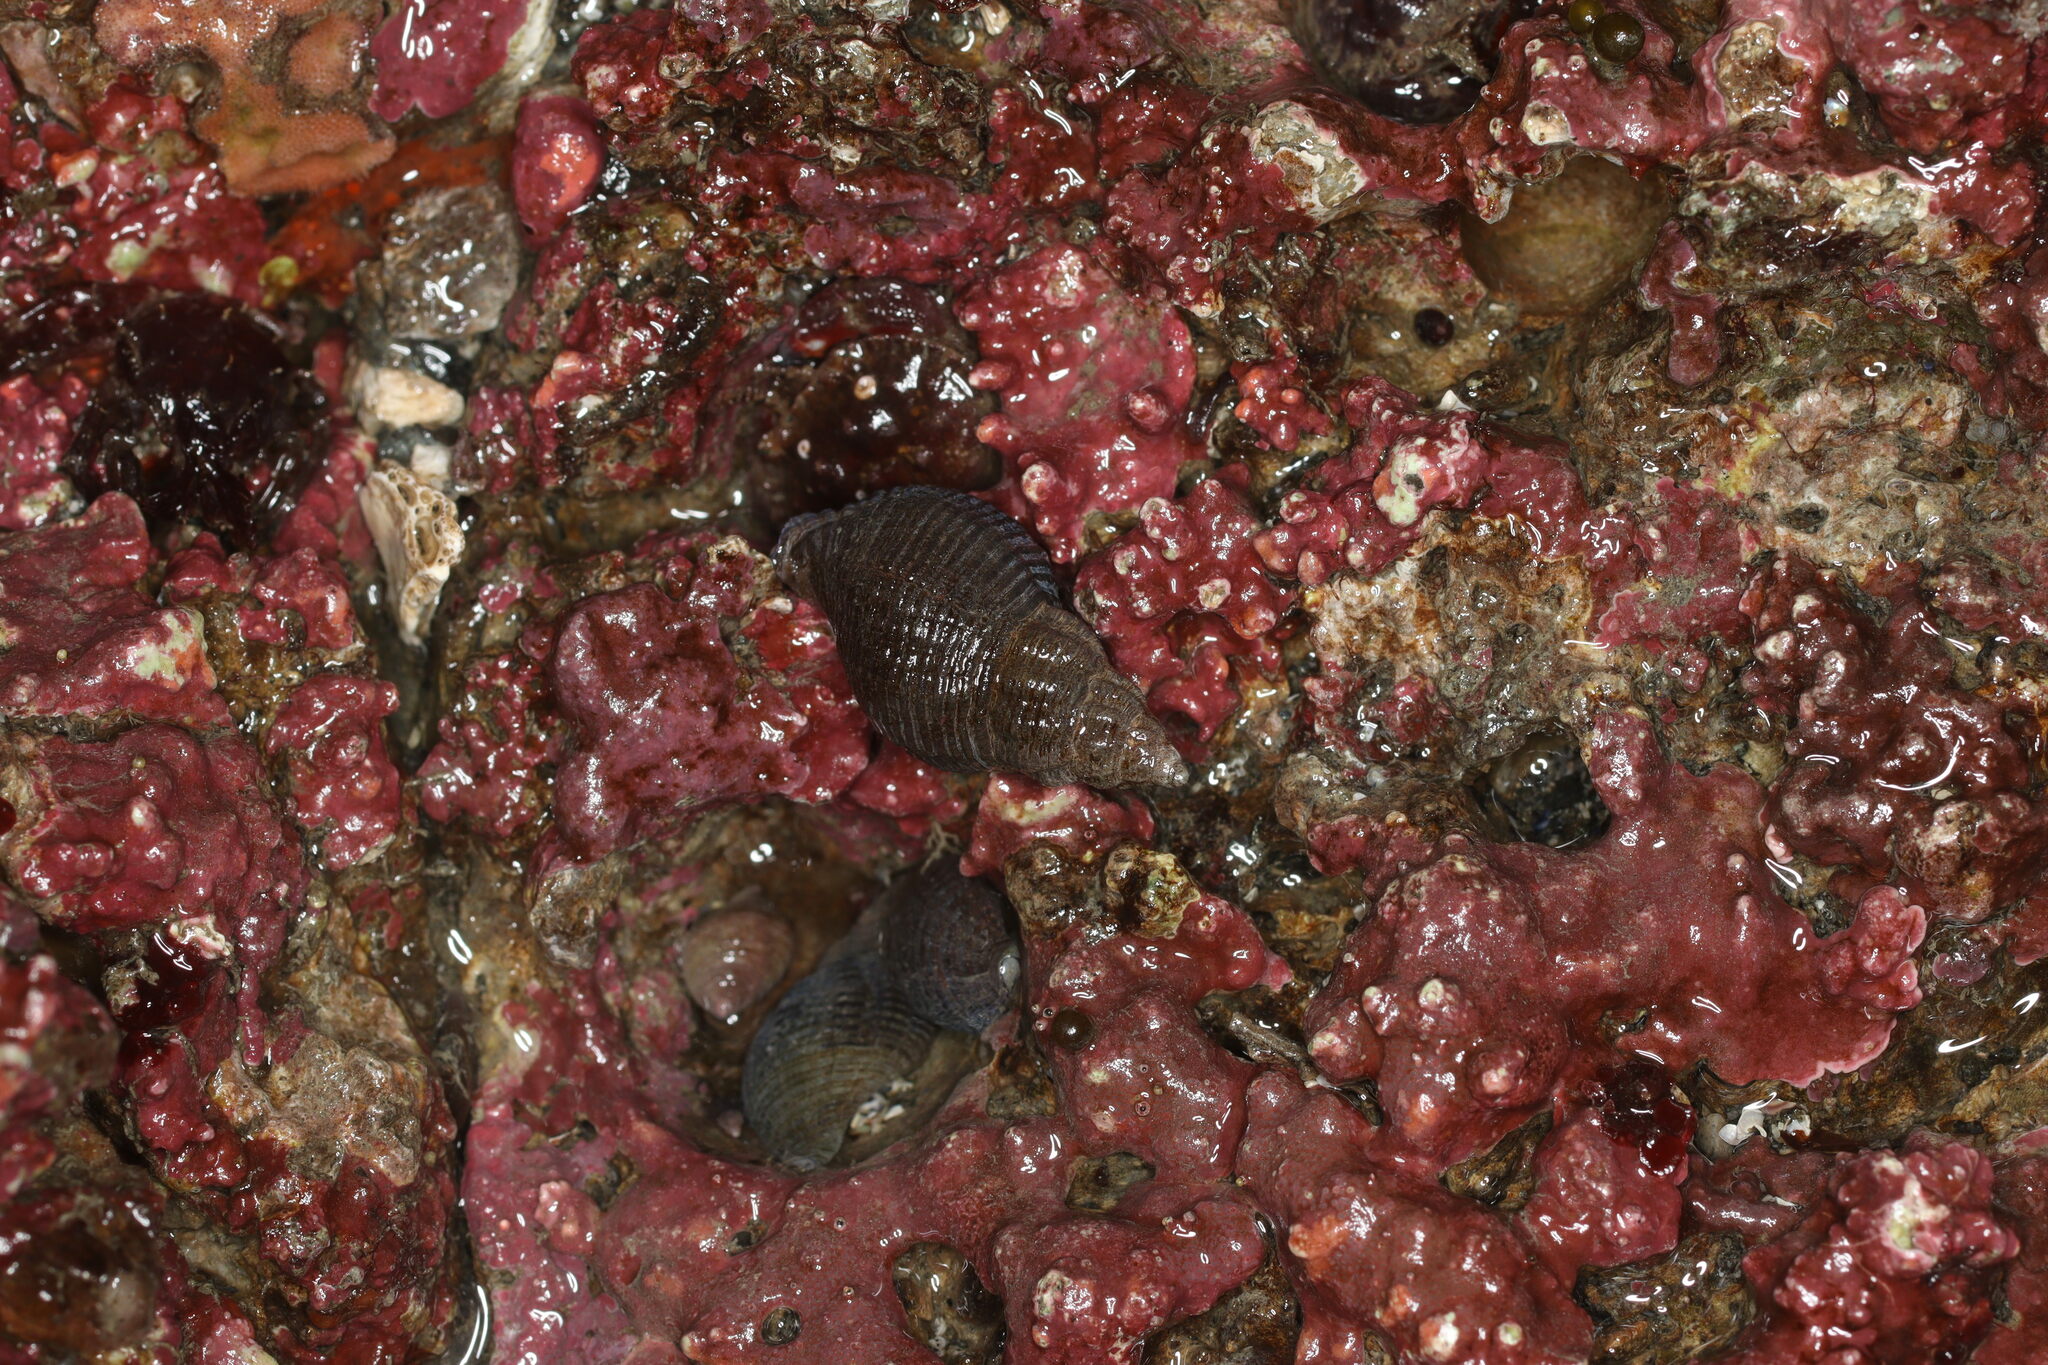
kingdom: Animalia
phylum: Mollusca
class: Gastropoda
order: Neogastropoda
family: Tudiclidae
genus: Lirabuccinum
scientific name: Lirabuccinum dirum
